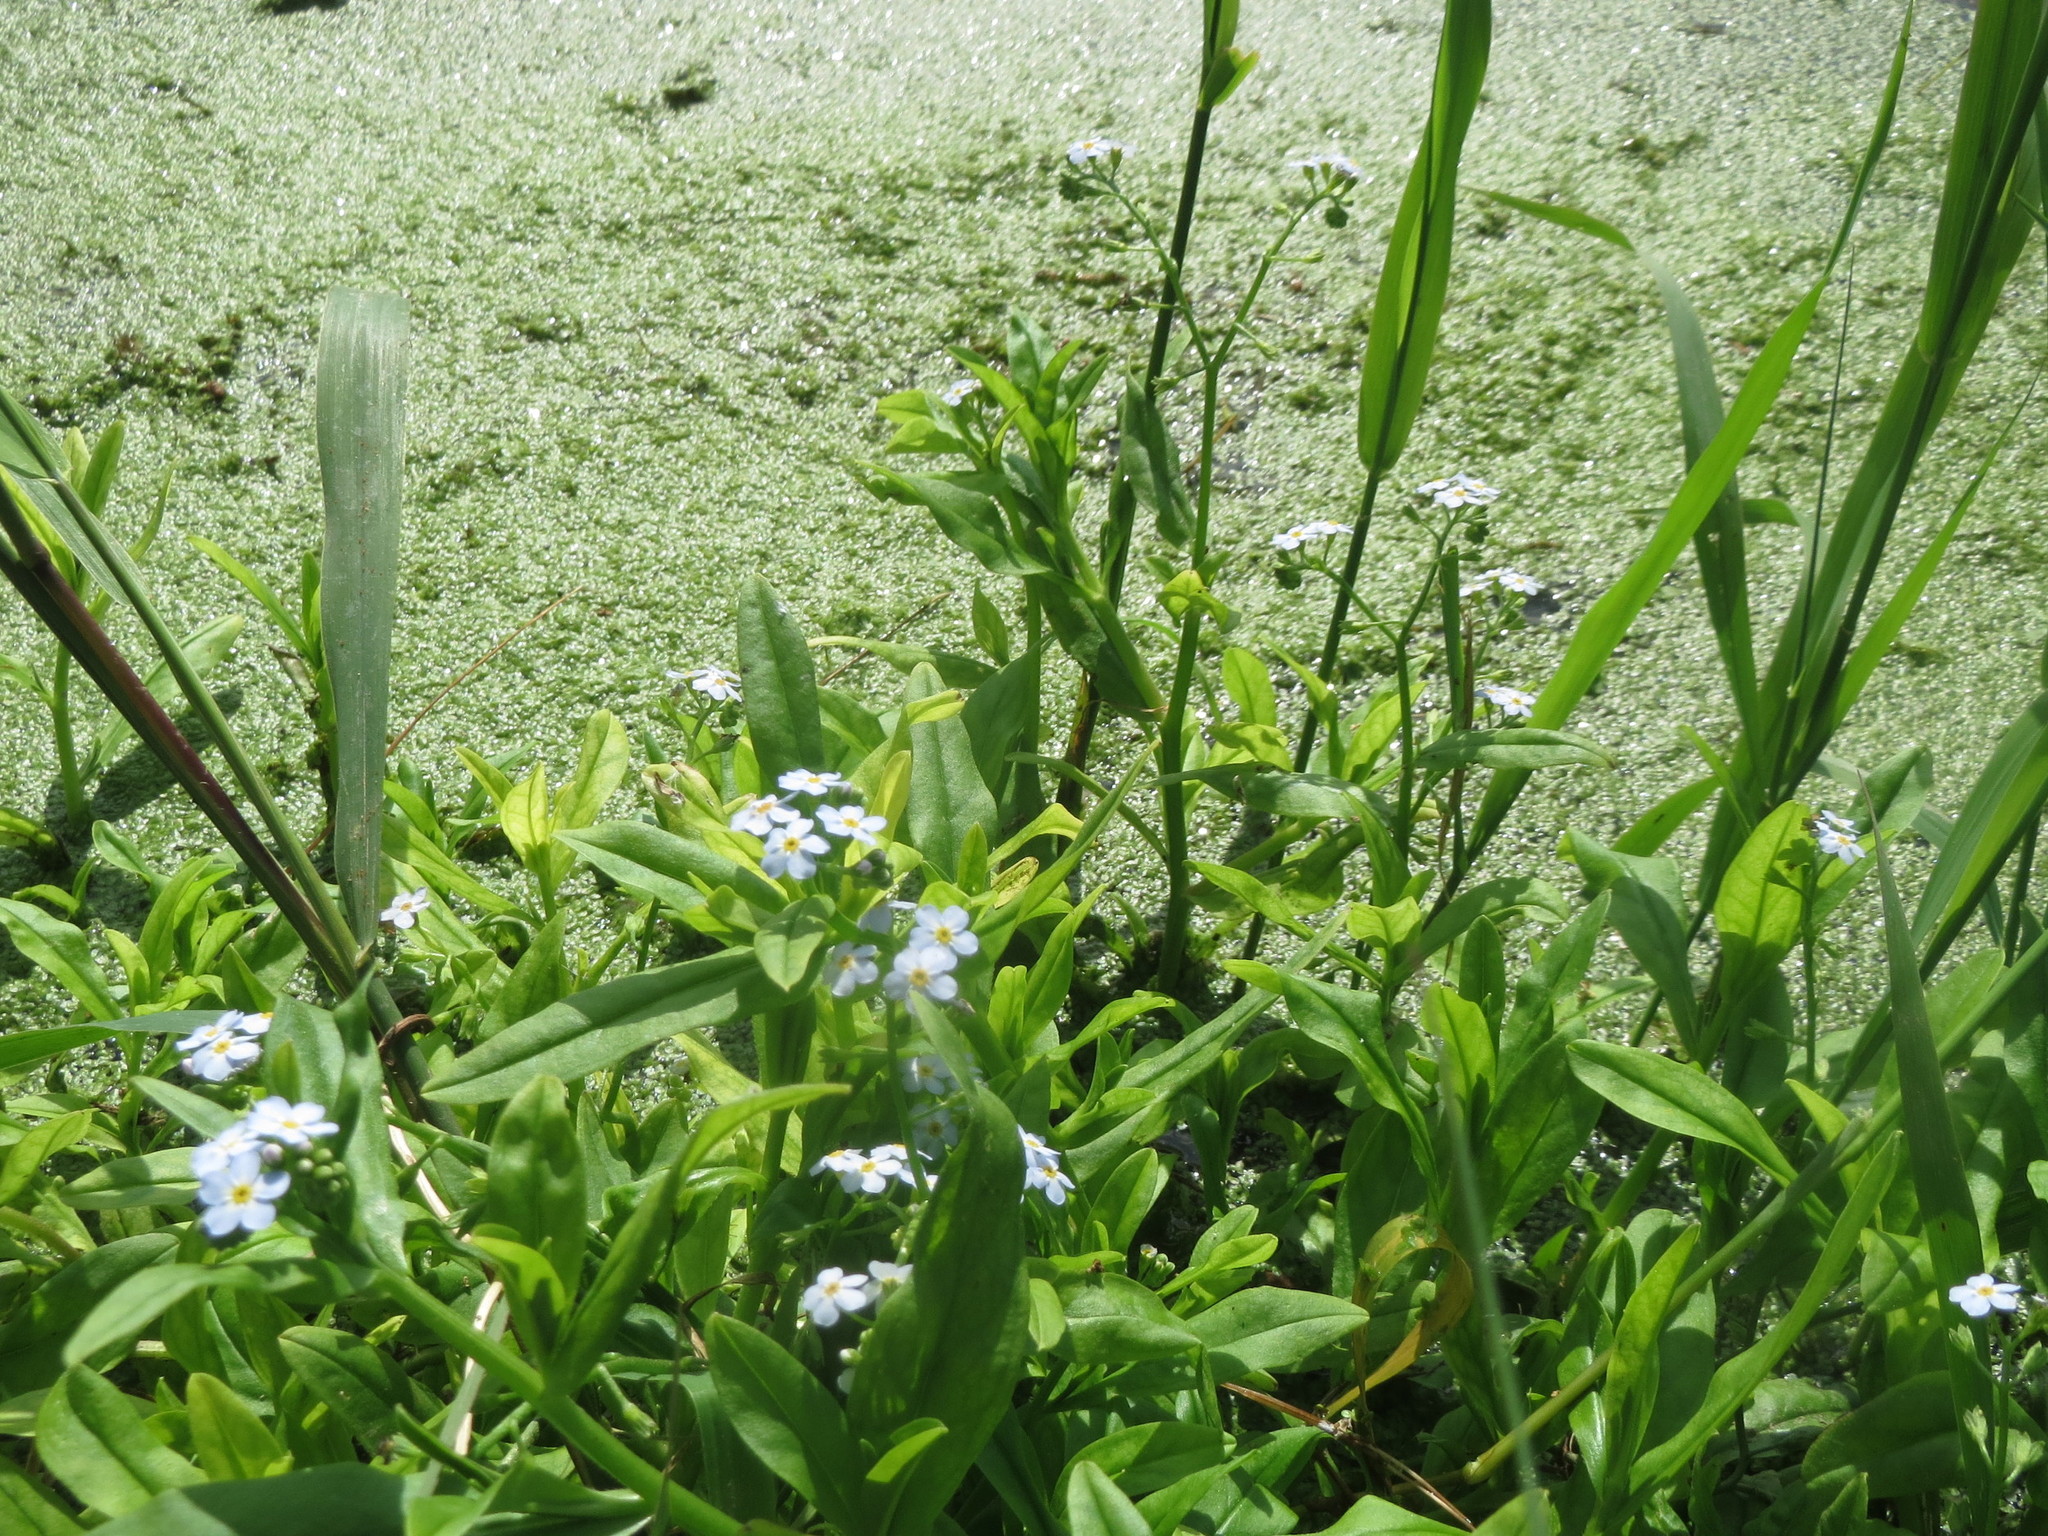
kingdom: Plantae
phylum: Tracheophyta
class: Liliopsida
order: Alismatales
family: Araceae
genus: Lemna
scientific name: Lemna minor
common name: Common duckweed
